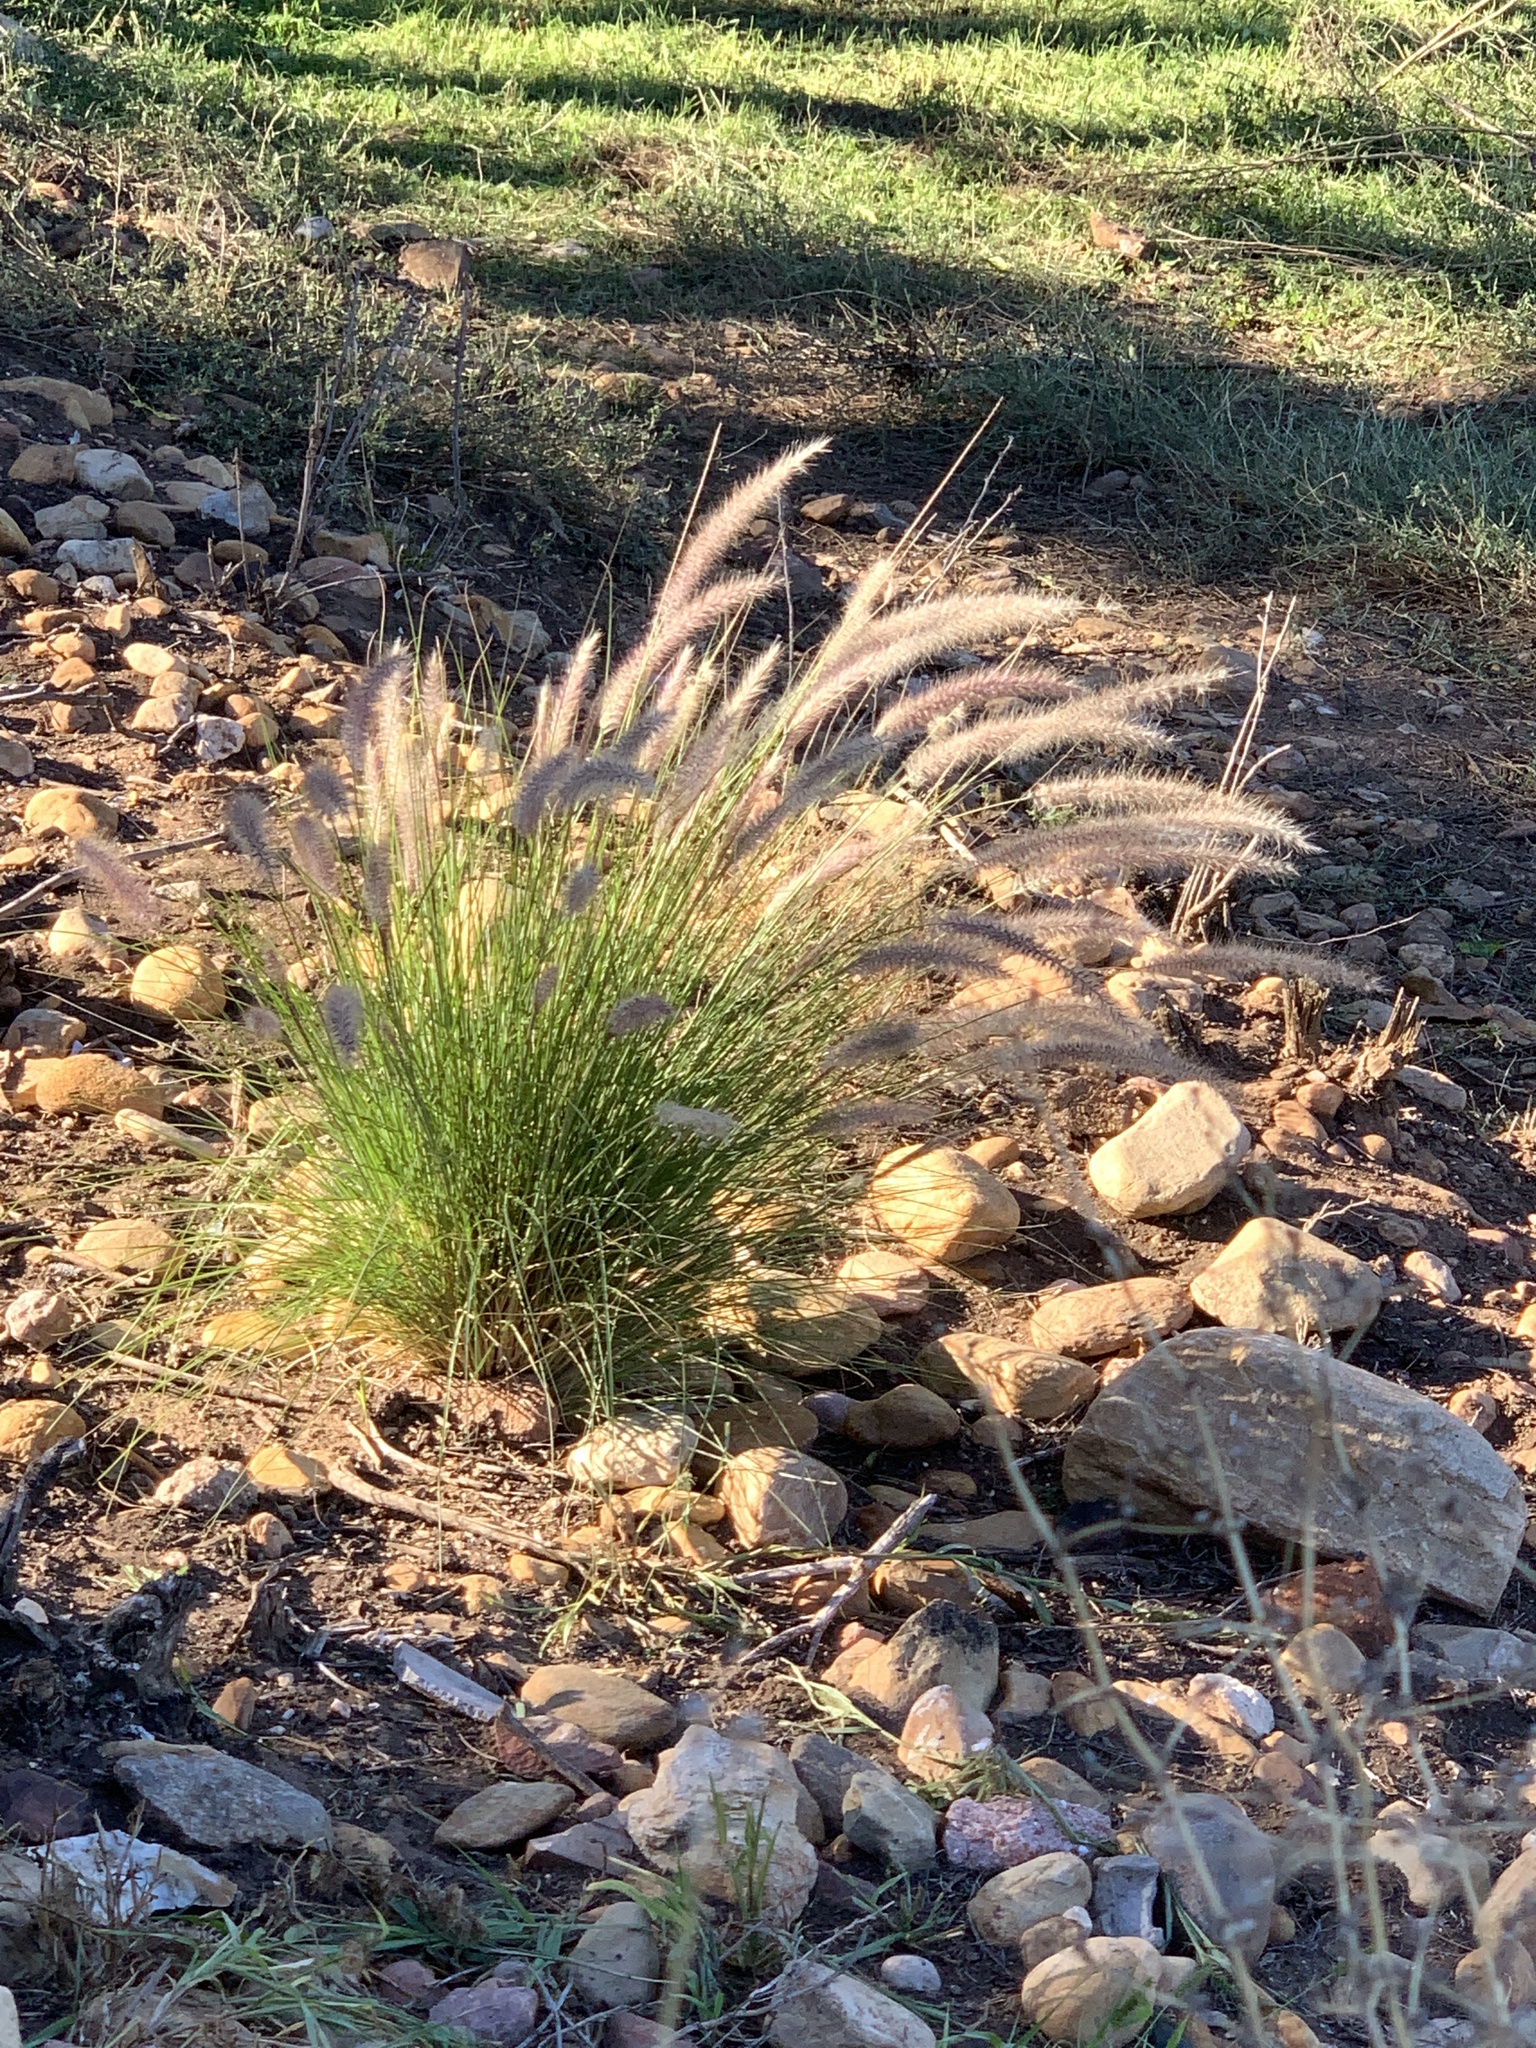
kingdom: Plantae
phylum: Tracheophyta
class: Liliopsida
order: Poales
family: Poaceae
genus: Cenchrus
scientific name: Cenchrus setaceus
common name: Crimson fountaingrass
